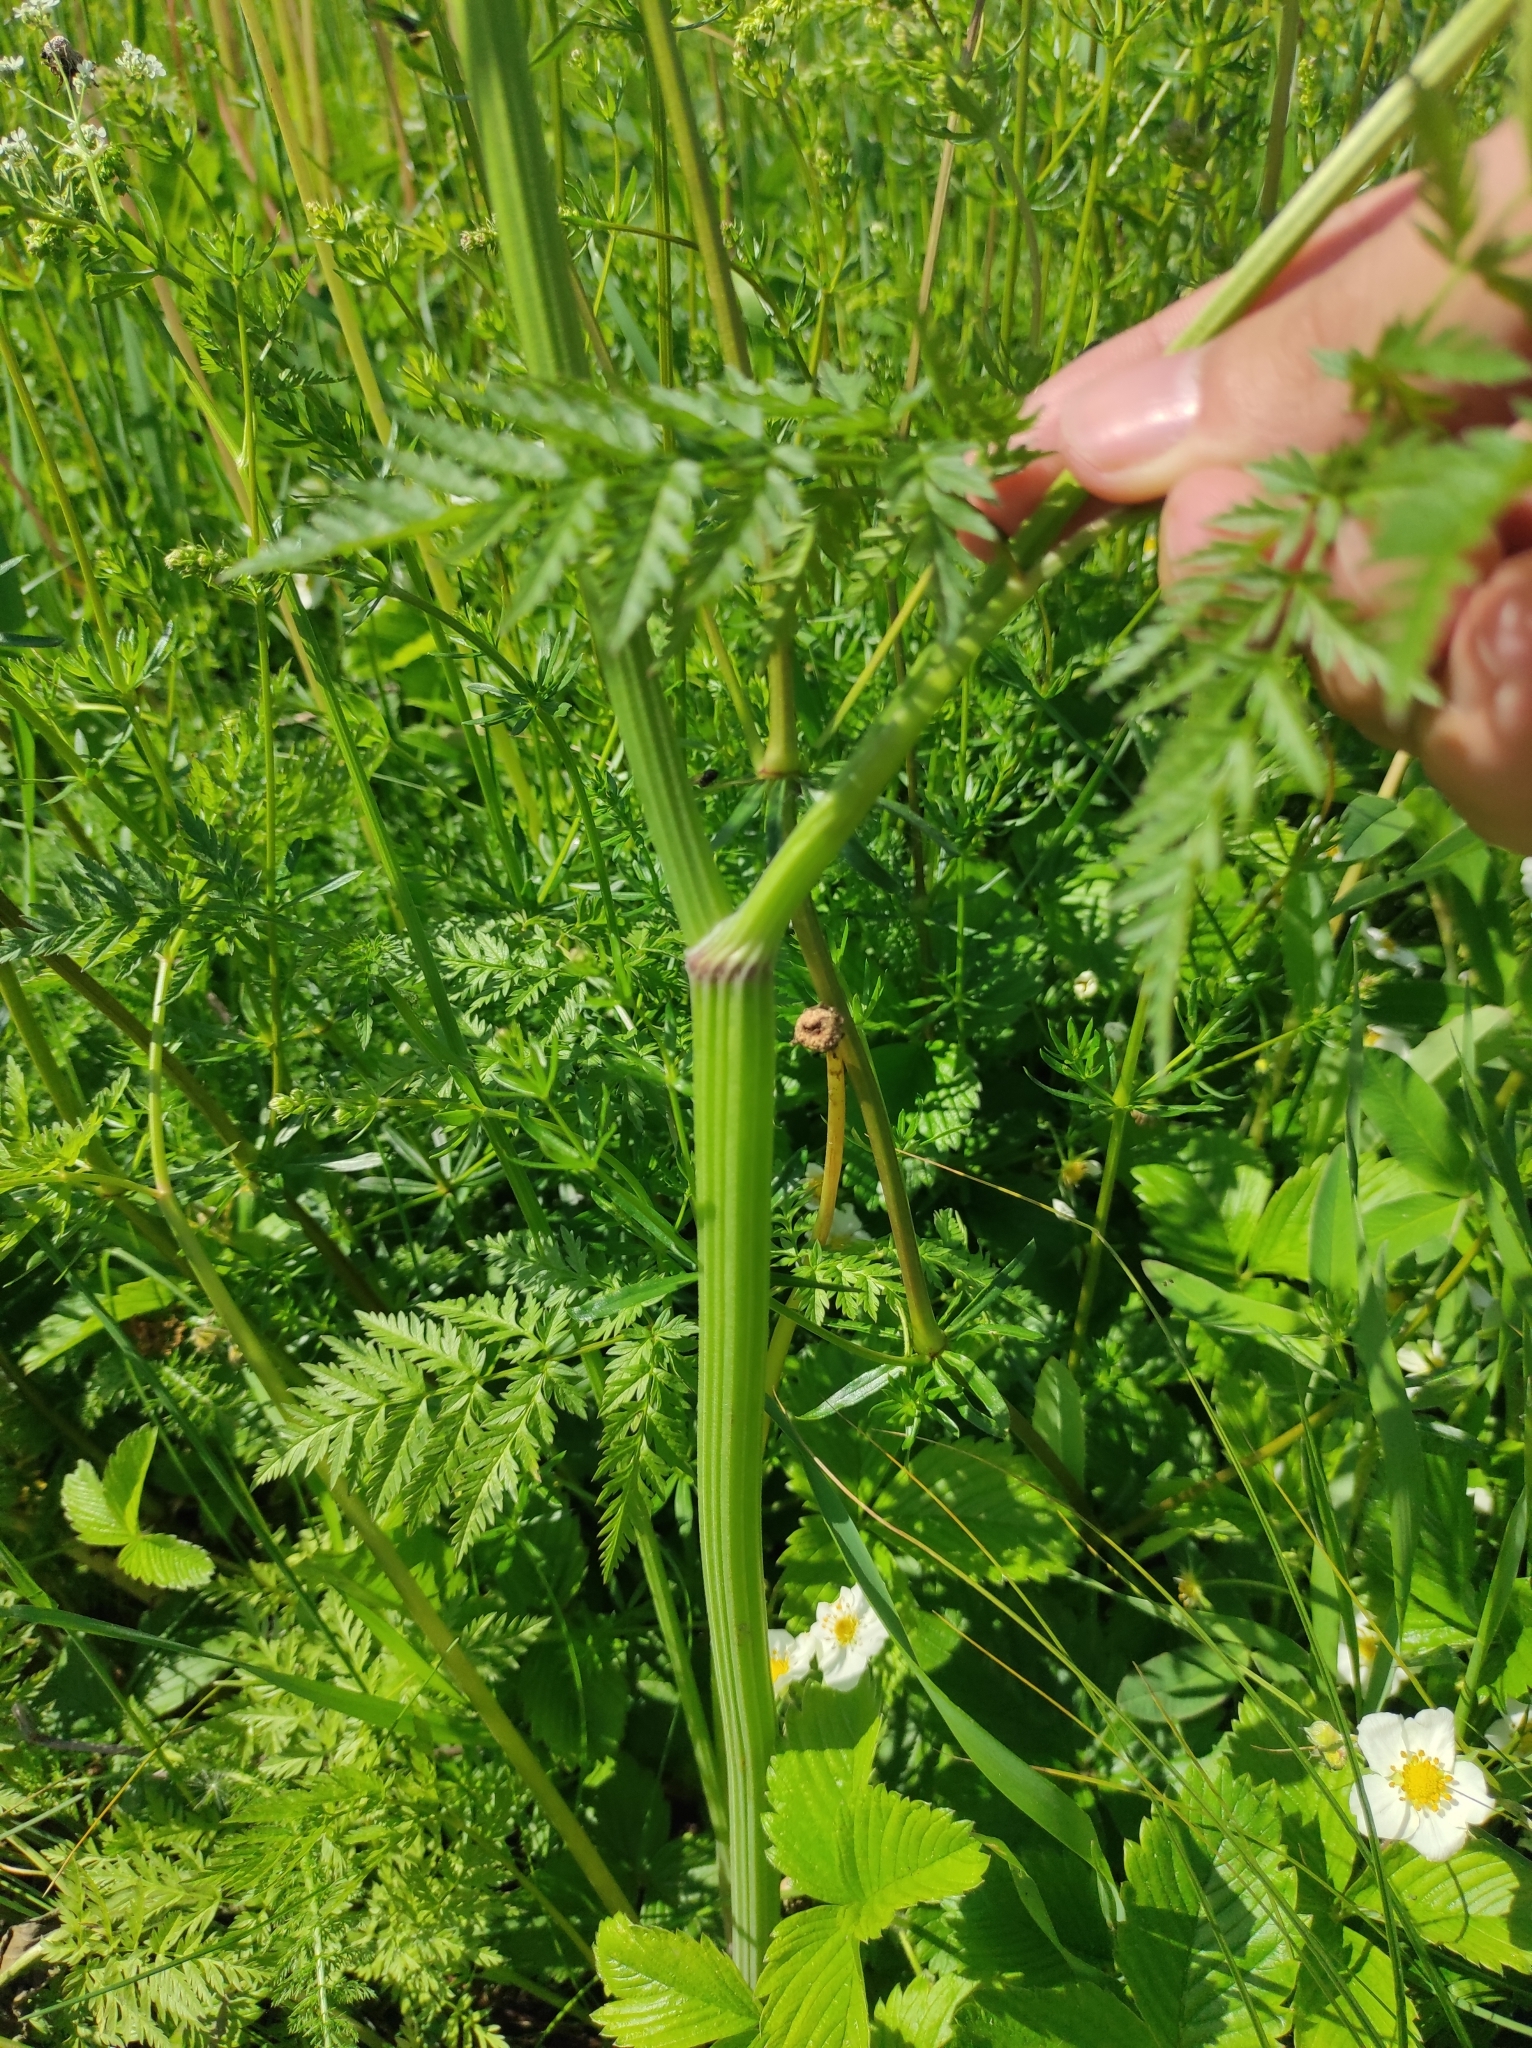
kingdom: Plantae
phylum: Tracheophyta
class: Magnoliopsida
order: Apiales
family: Apiaceae
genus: Anthriscus
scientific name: Anthriscus sylvestris
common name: Cow parsley
